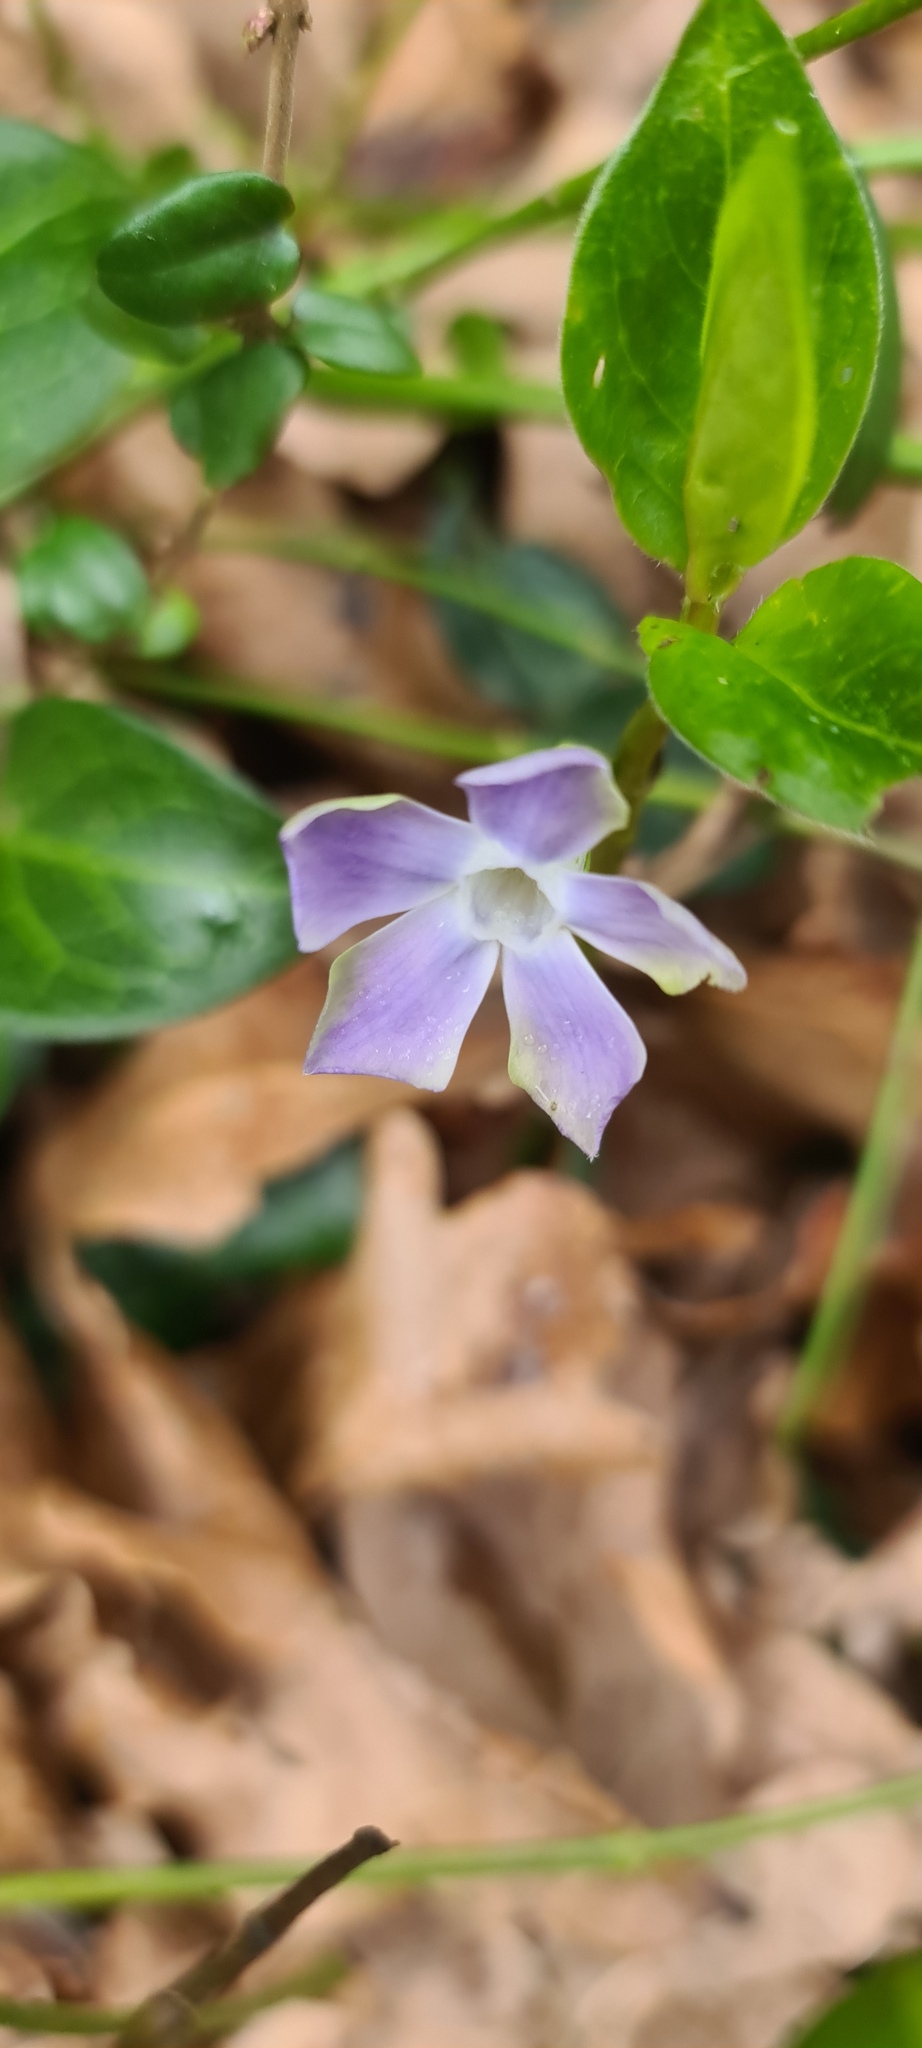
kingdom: Plantae
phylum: Tracheophyta
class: Magnoliopsida
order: Gentianales
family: Apocynaceae
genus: Vinca
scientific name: Vinca major
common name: Greater periwinkle
